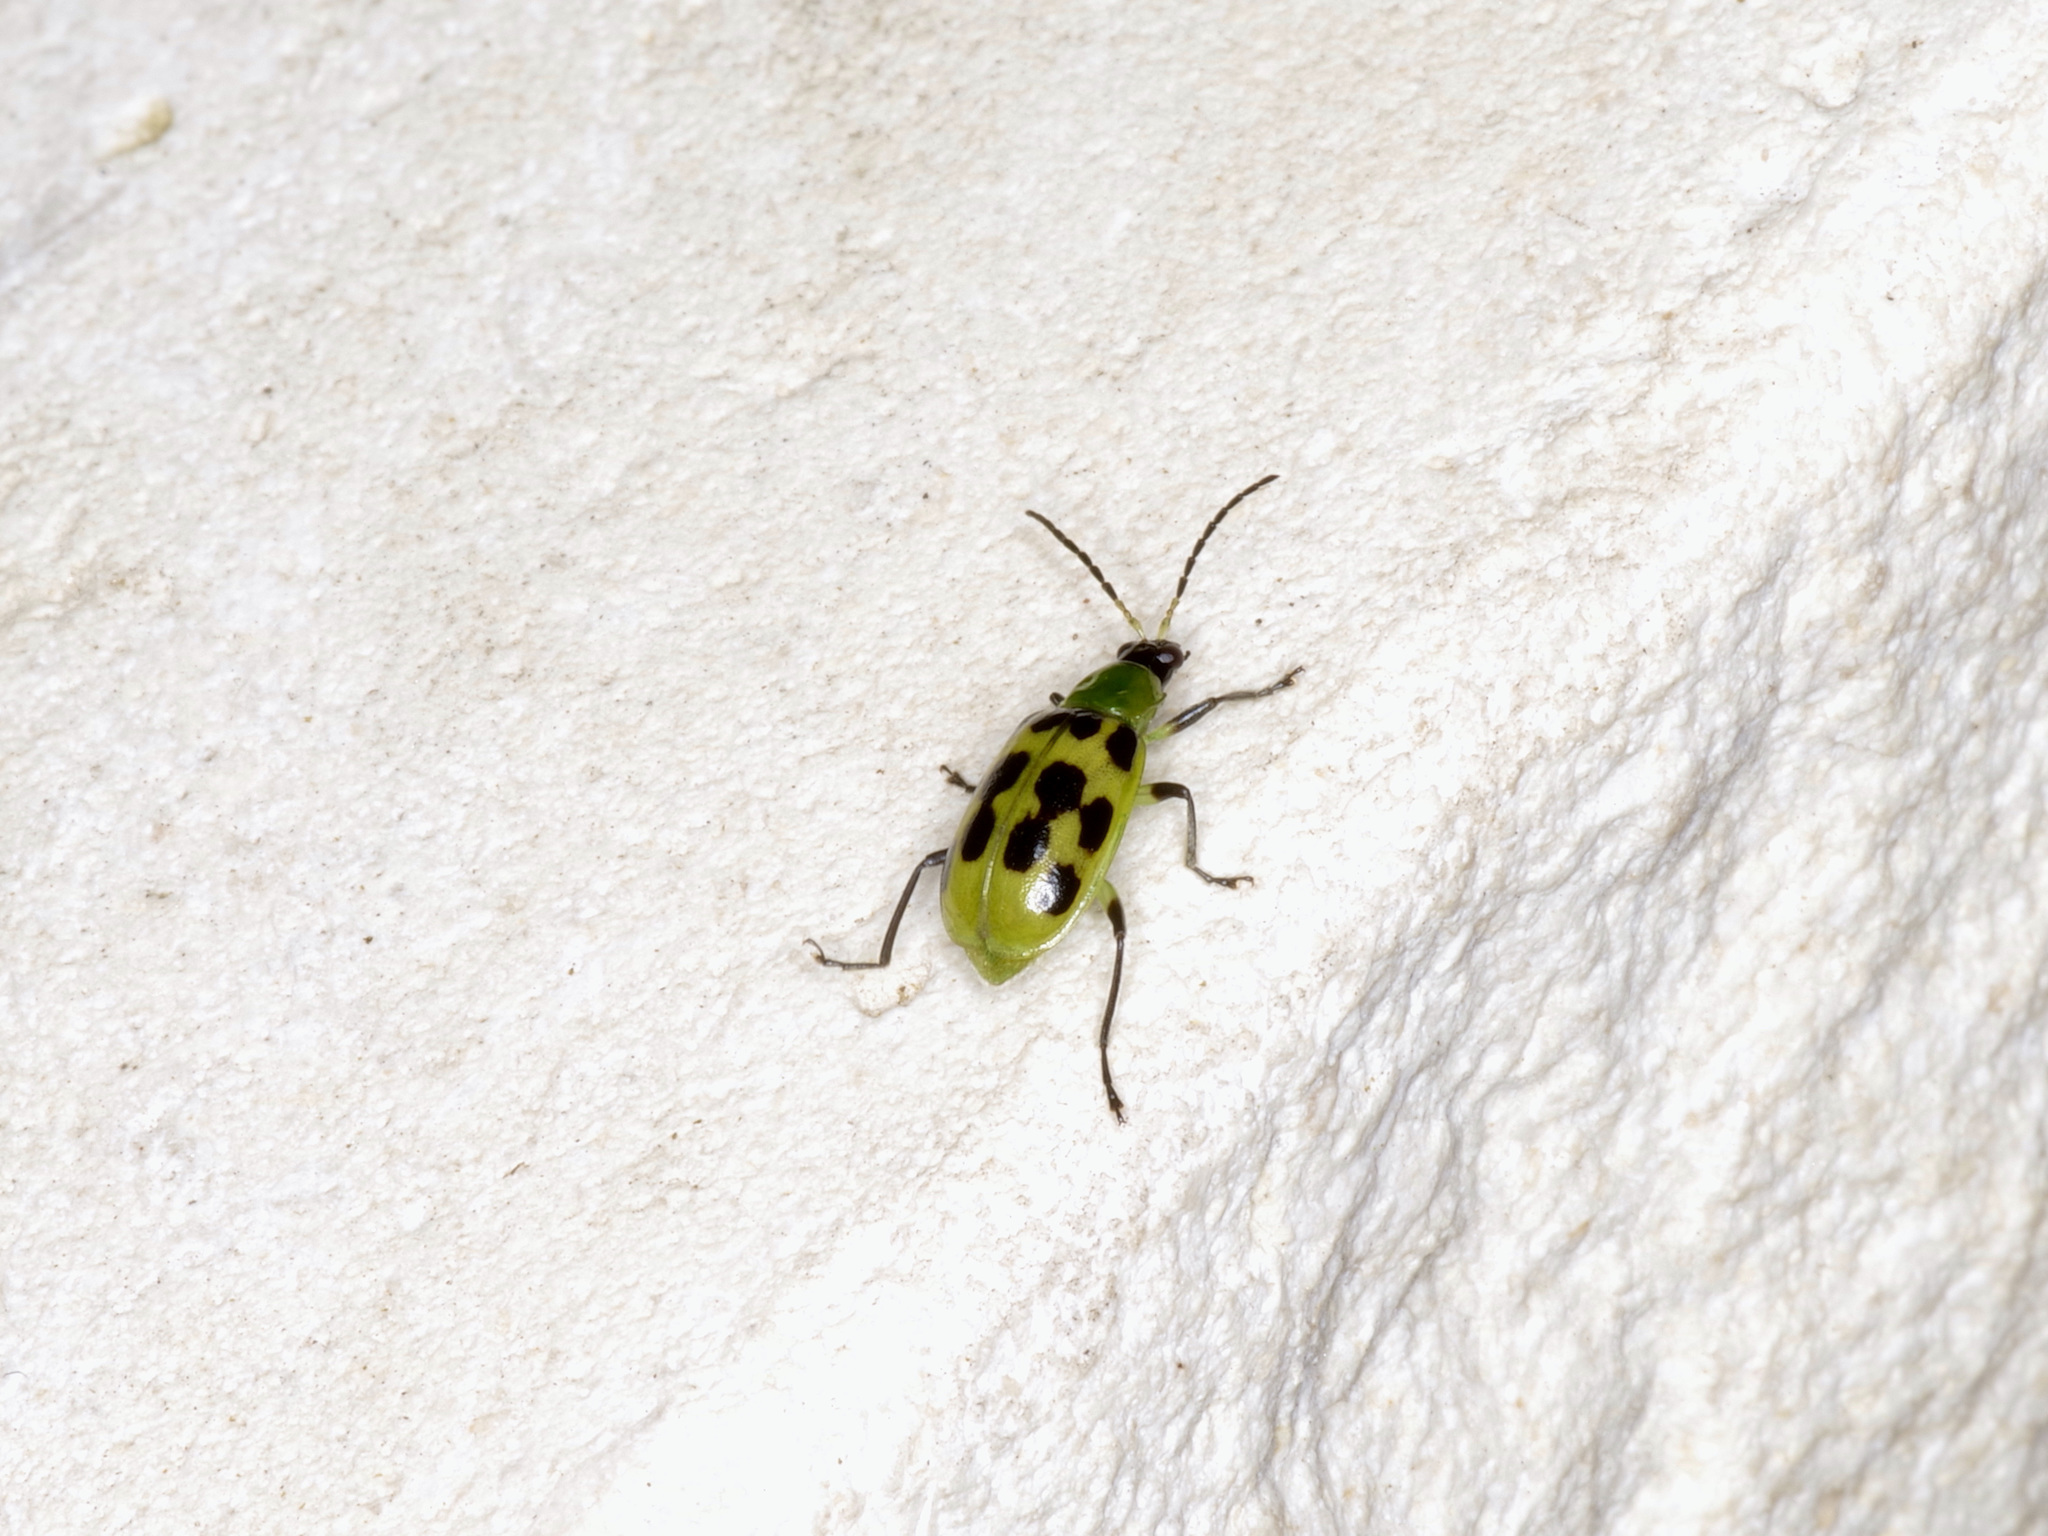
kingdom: Animalia
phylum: Arthropoda
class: Insecta
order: Coleoptera
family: Chrysomelidae
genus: Diabrotica
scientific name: Diabrotica undecimpunctata
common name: Spotted cucumber beetle
